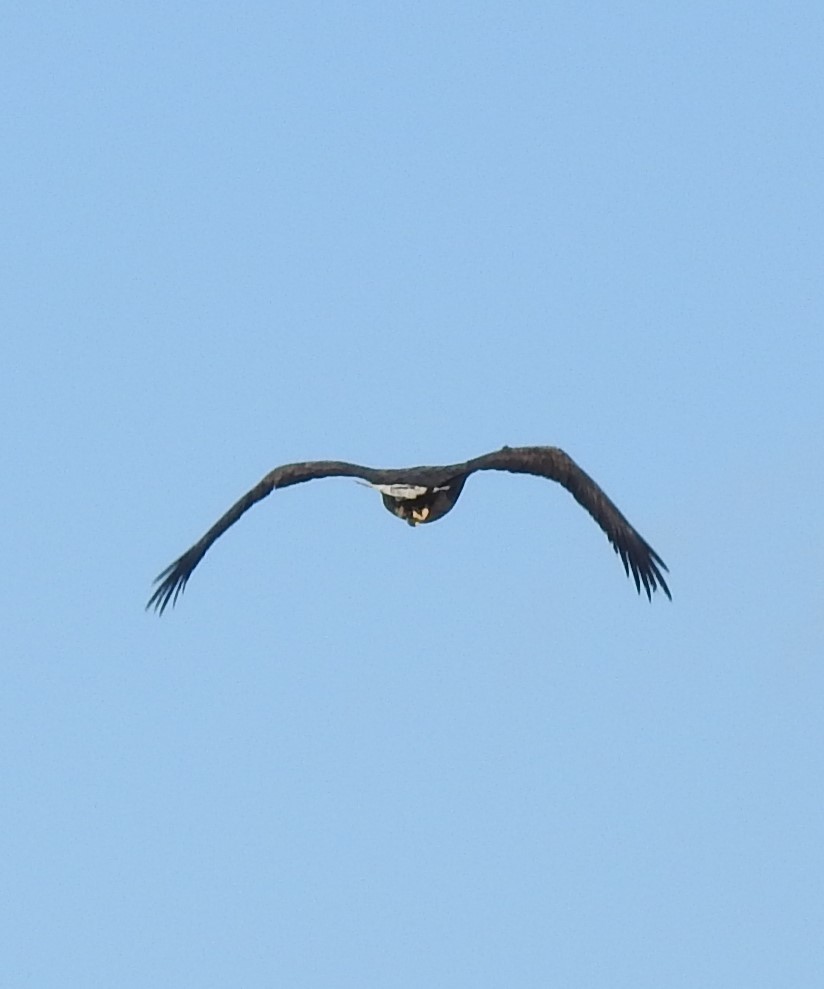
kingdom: Animalia
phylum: Chordata
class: Aves
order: Accipitriformes
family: Accipitridae
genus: Haliaeetus
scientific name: Haliaeetus albicilla
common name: White-tailed eagle
